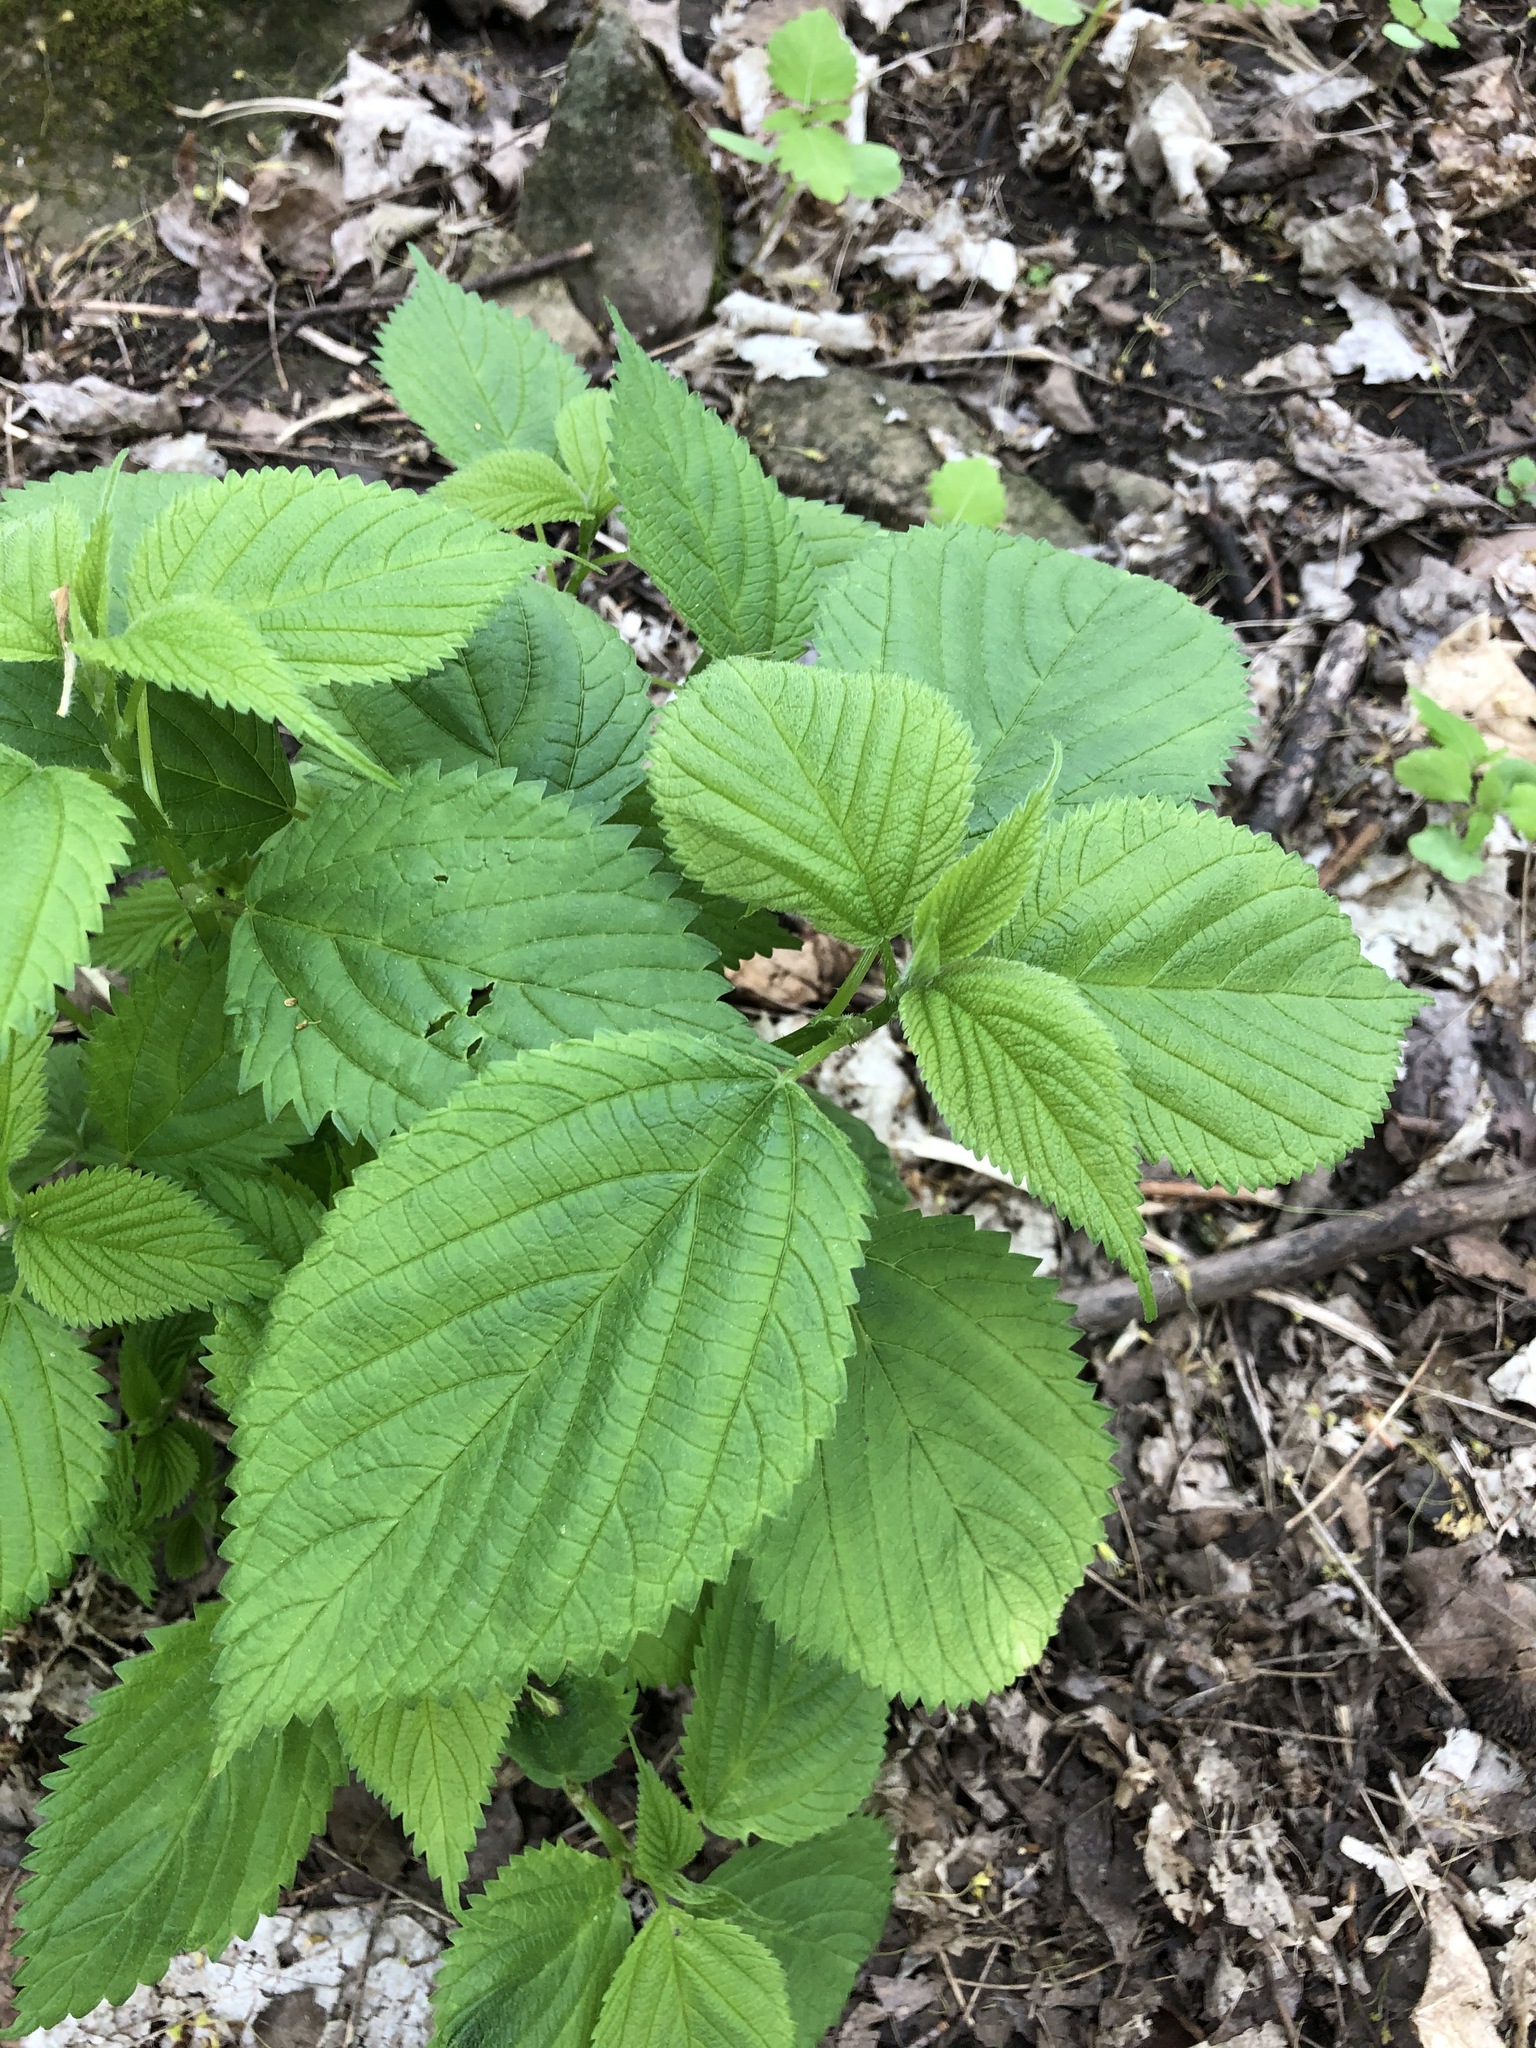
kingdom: Plantae
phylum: Tracheophyta
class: Magnoliopsida
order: Rosales
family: Urticaceae
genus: Laportea
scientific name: Laportea canadensis
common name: Canada nettle
